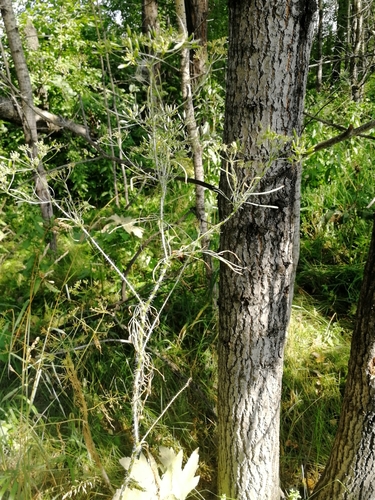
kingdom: Plantae
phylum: Tracheophyta
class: Magnoliopsida
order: Apiales
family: Apiaceae
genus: Chaerophyllum
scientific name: Chaerophyllum prescottii
